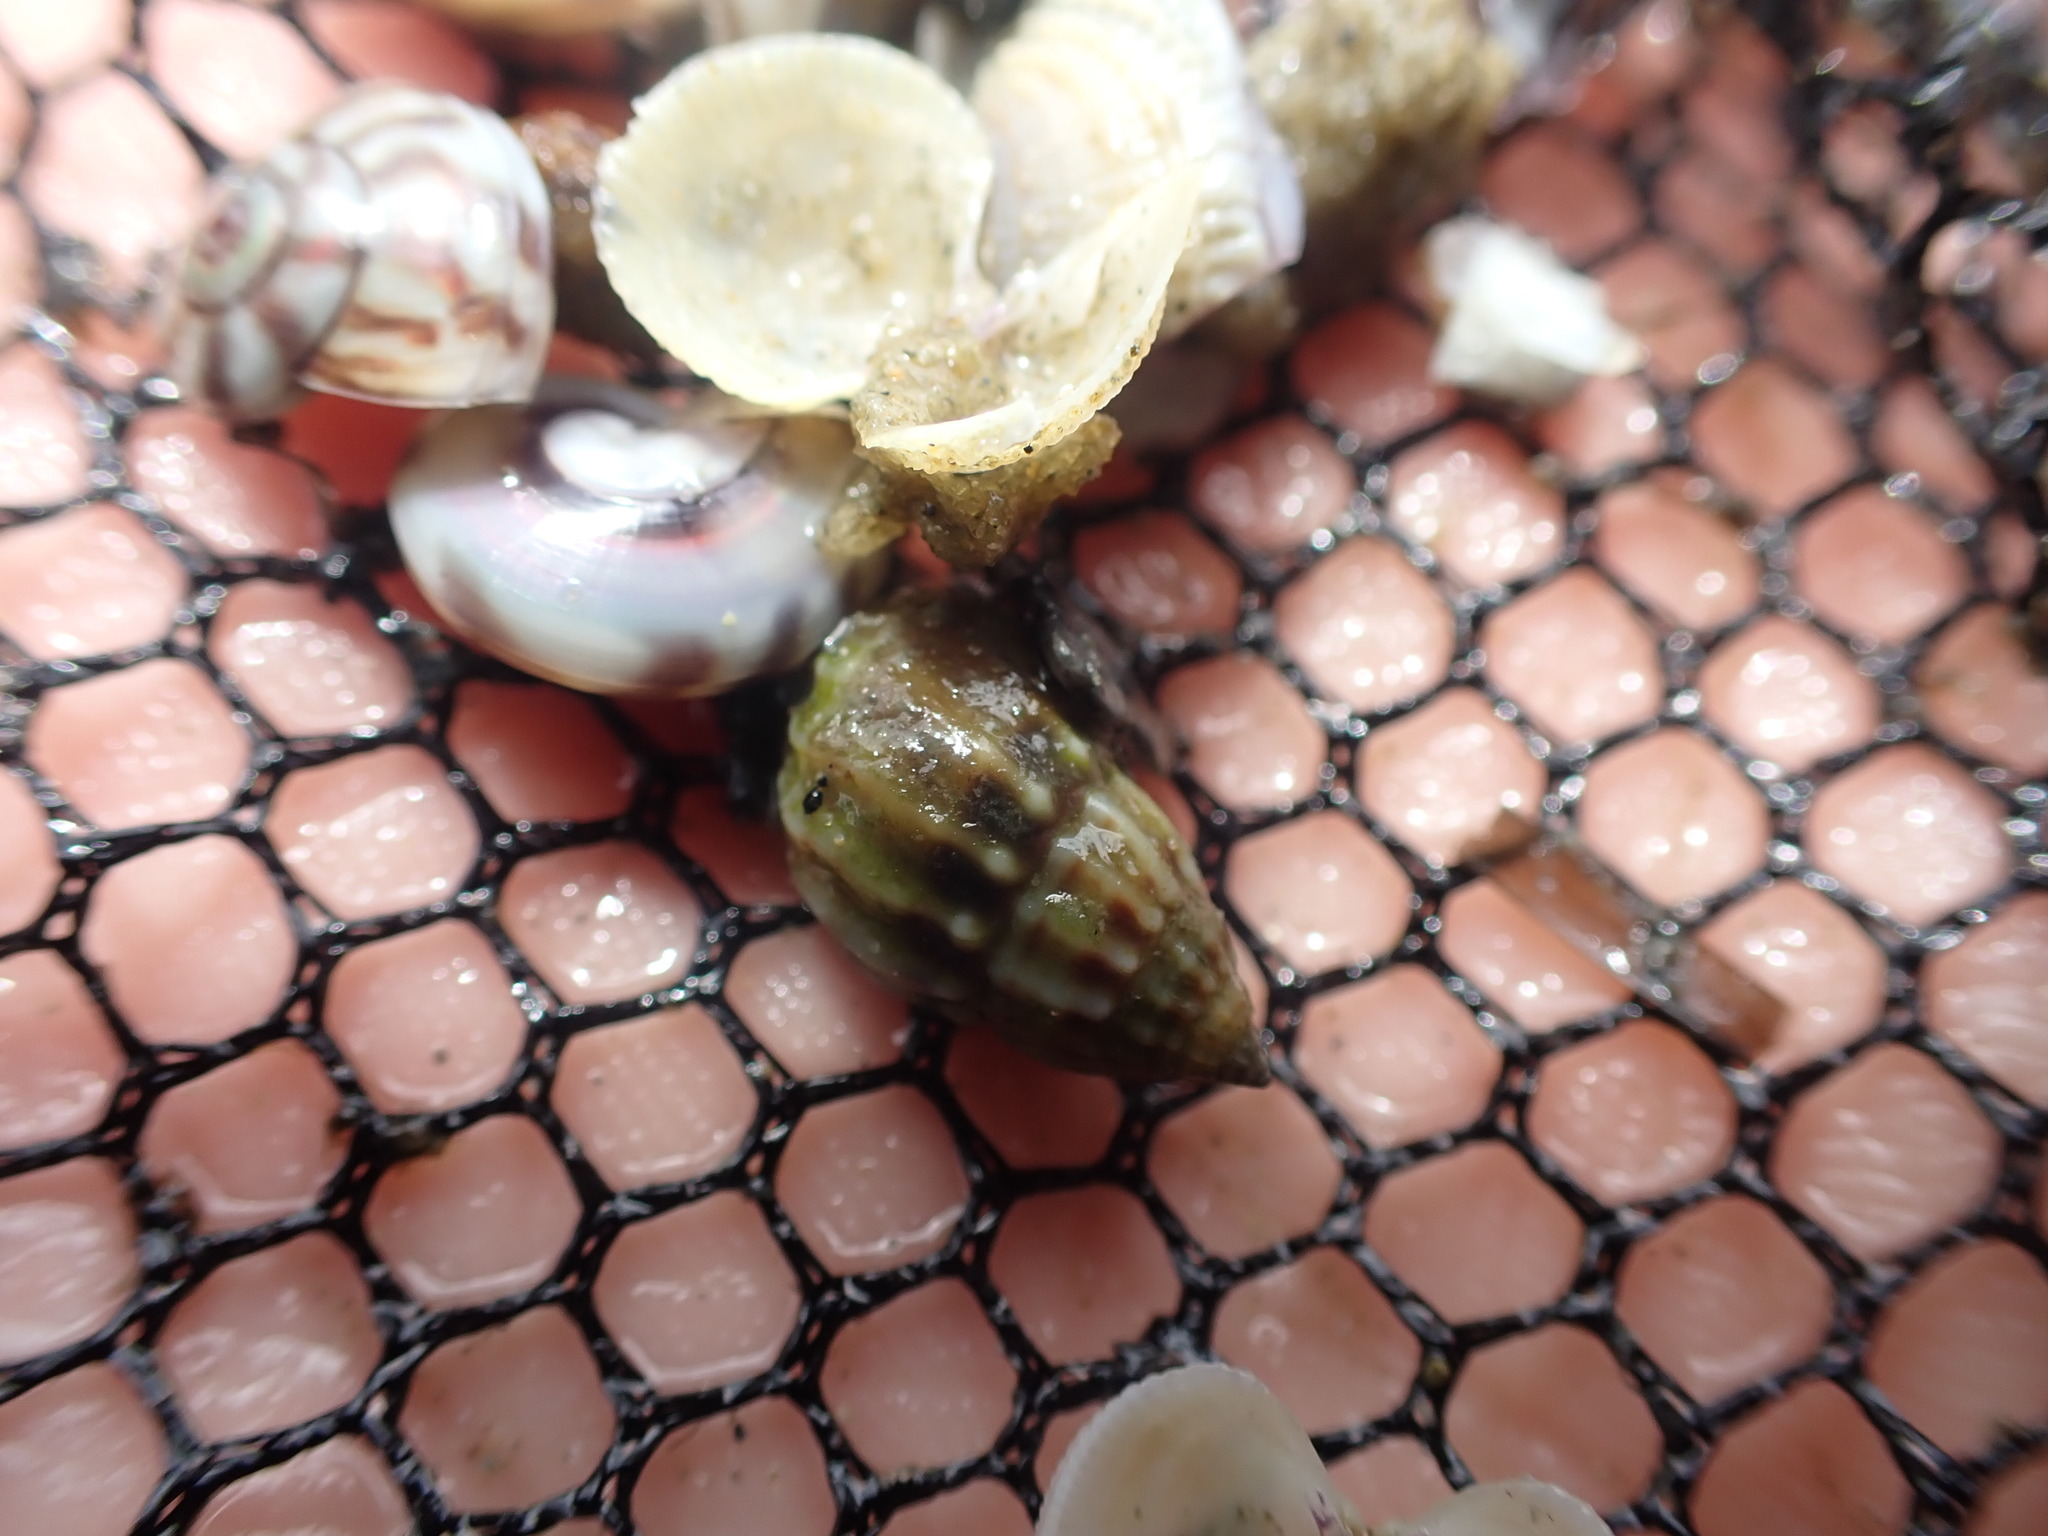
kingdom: Animalia
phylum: Mollusca
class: Gastropoda
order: Neogastropoda
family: Nassariidae
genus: Tritia
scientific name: Tritia burchardi
